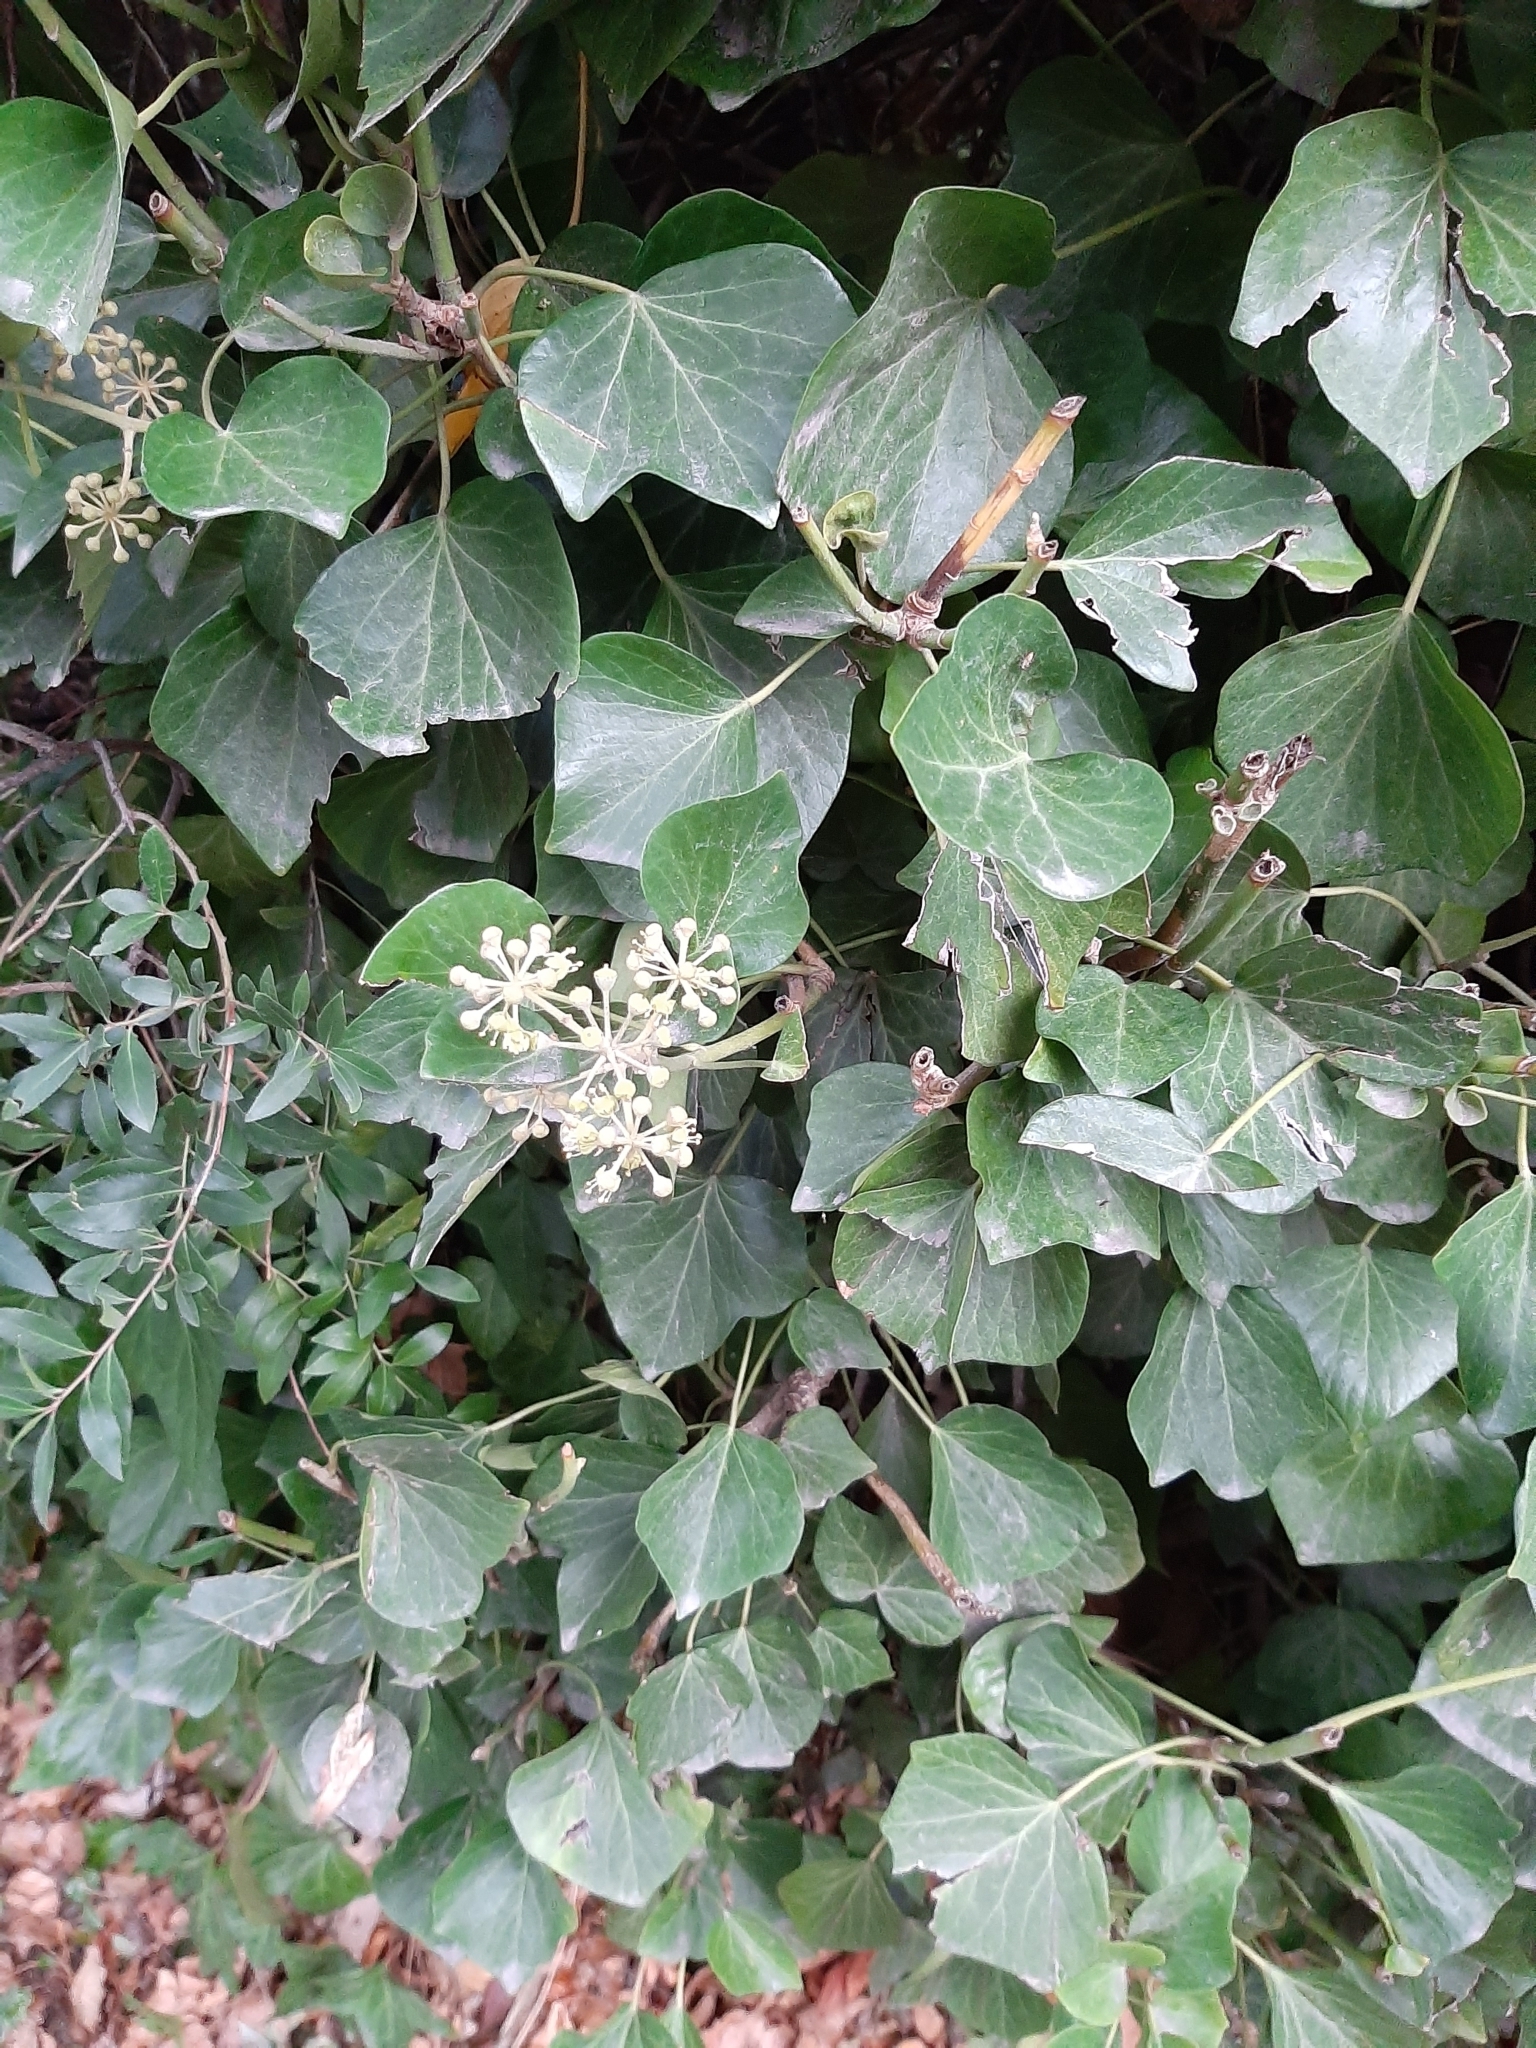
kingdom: Plantae
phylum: Tracheophyta
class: Magnoliopsida
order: Apiales
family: Araliaceae
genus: Hedera
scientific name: Hedera helix
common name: Ivy
